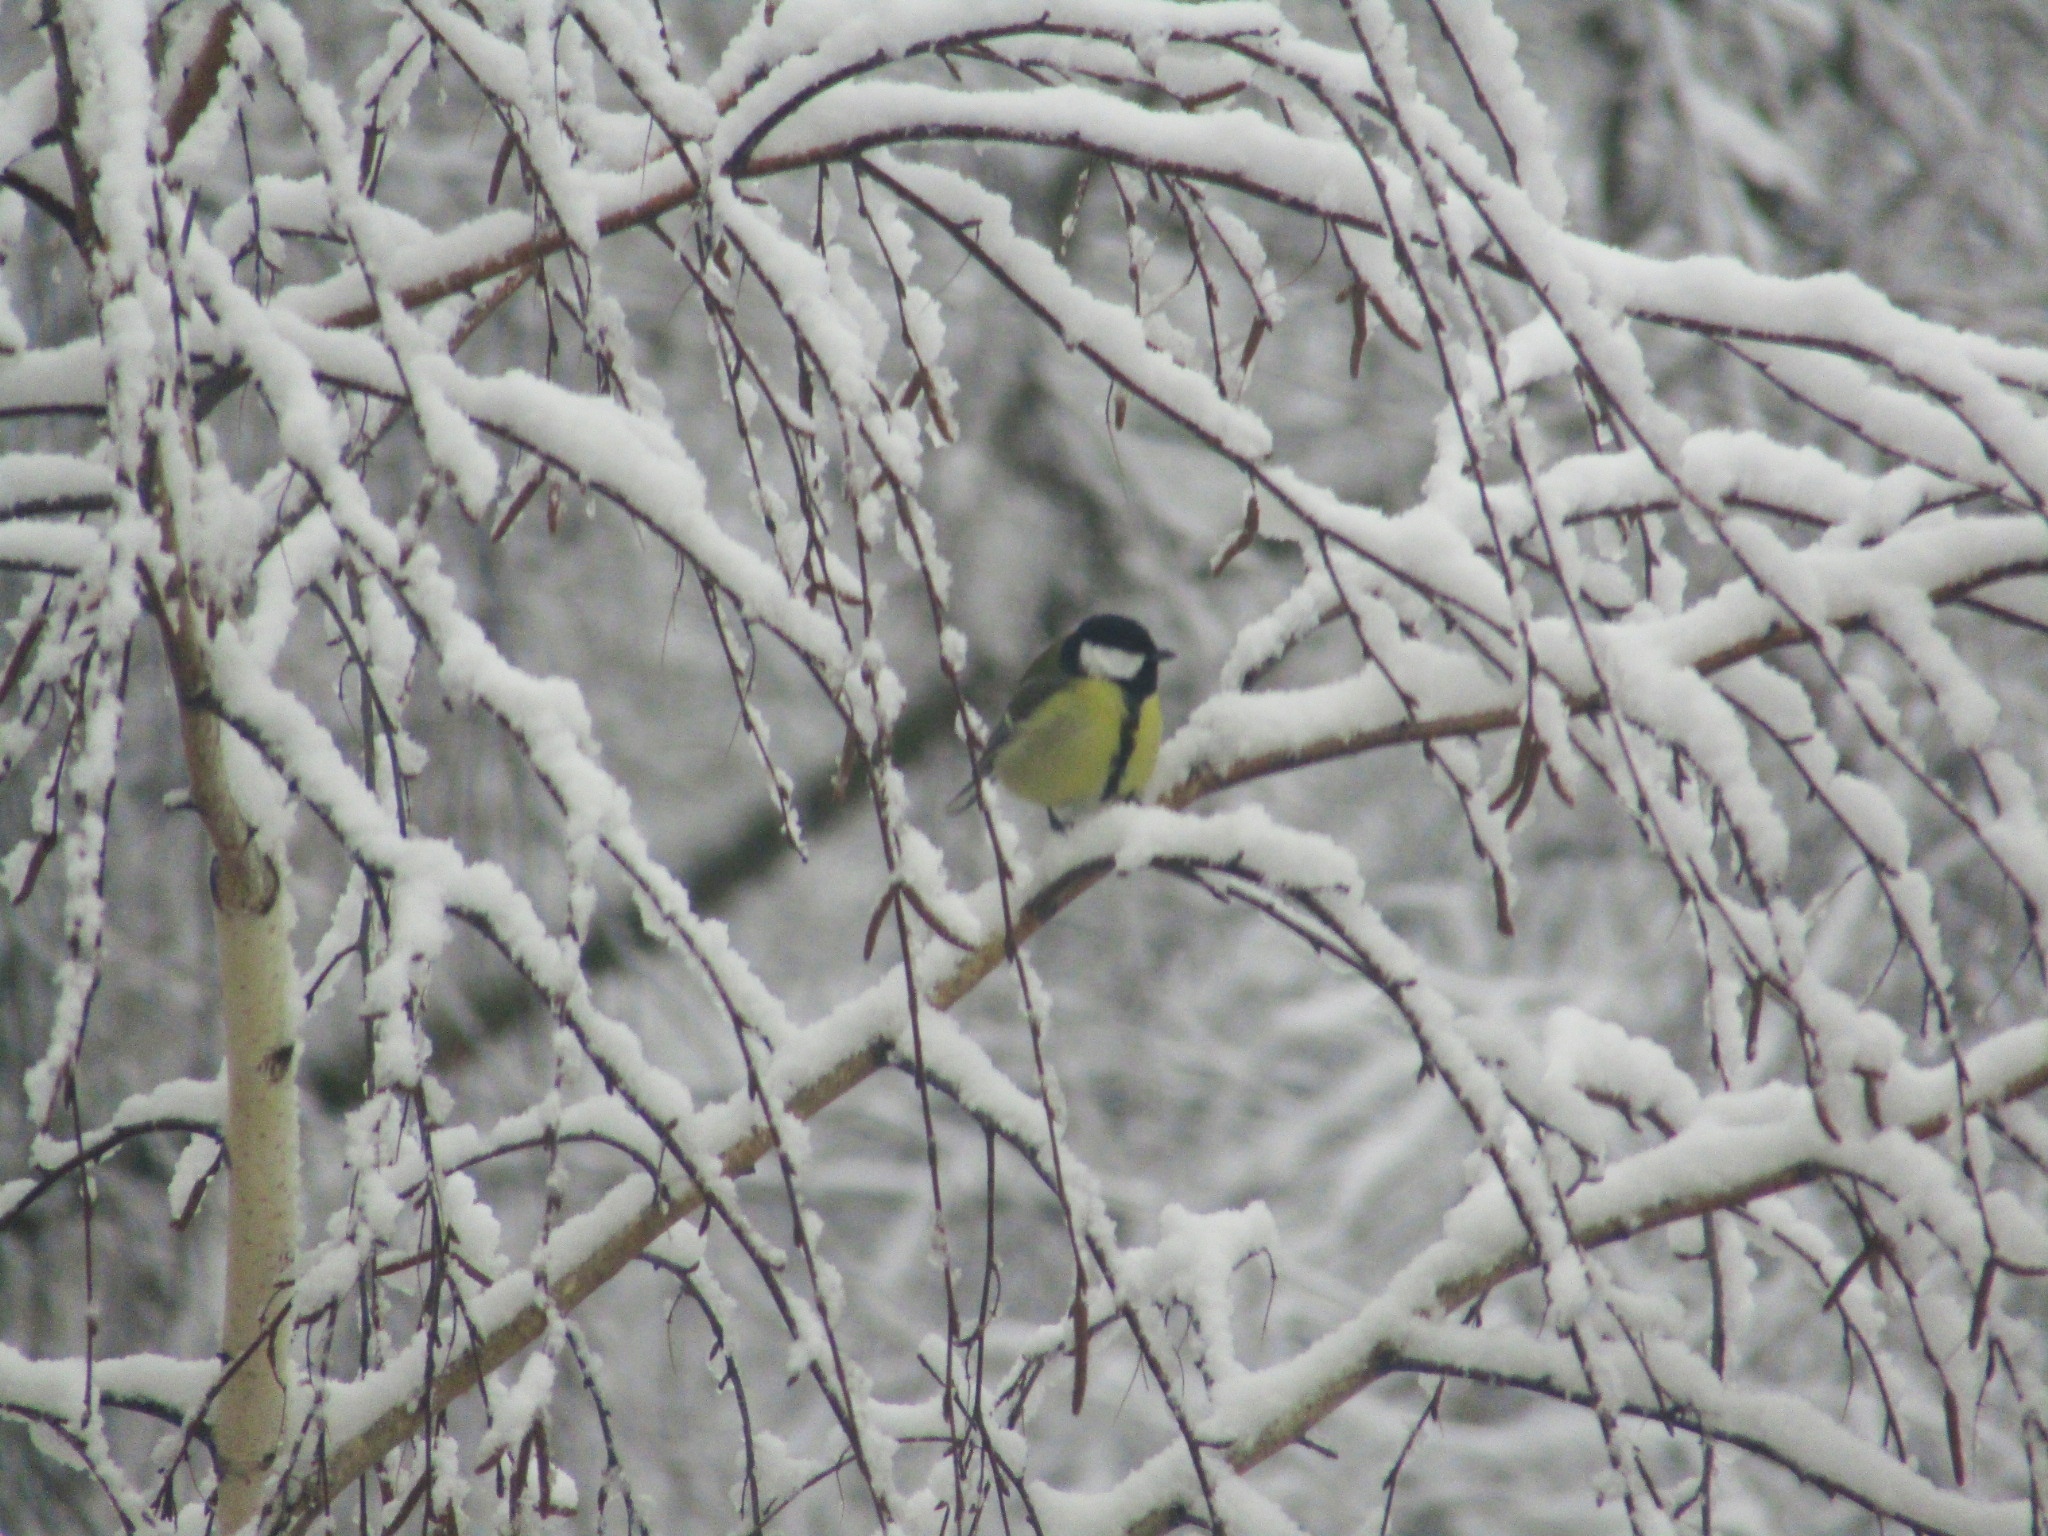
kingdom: Animalia
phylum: Chordata
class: Aves
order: Passeriformes
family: Paridae
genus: Parus
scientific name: Parus major
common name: Great tit
